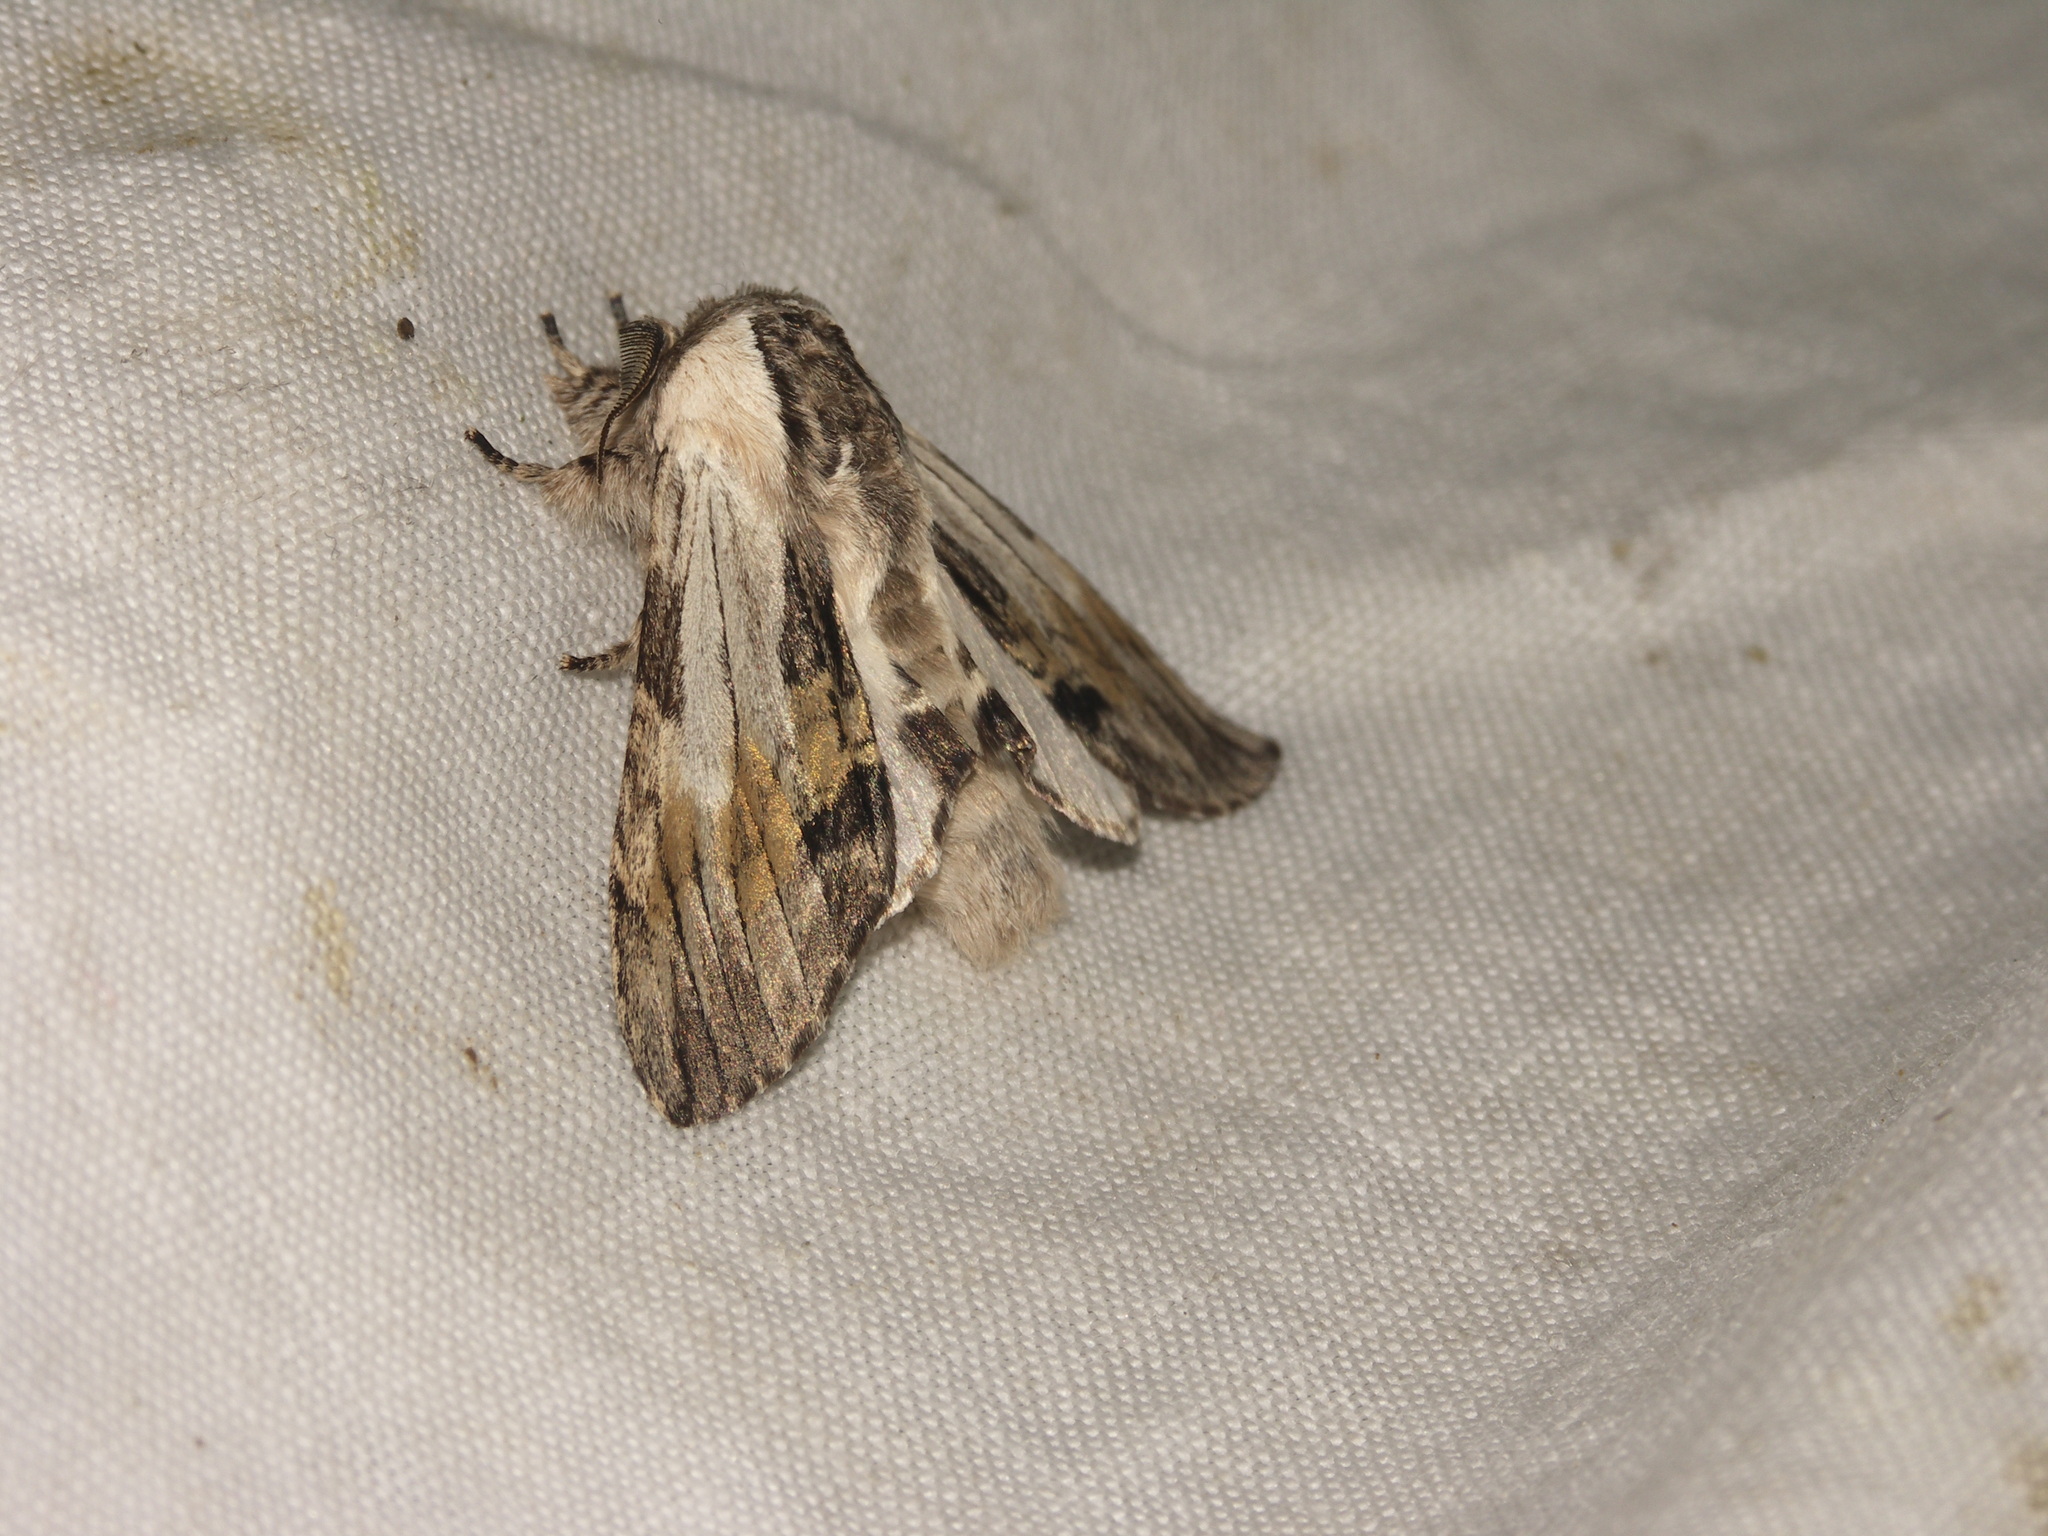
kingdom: Animalia
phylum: Arthropoda
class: Insecta
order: Lepidoptera
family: Notodontidae
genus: Harpyia
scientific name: Harpyia milhauseri
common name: Tawny prominent
